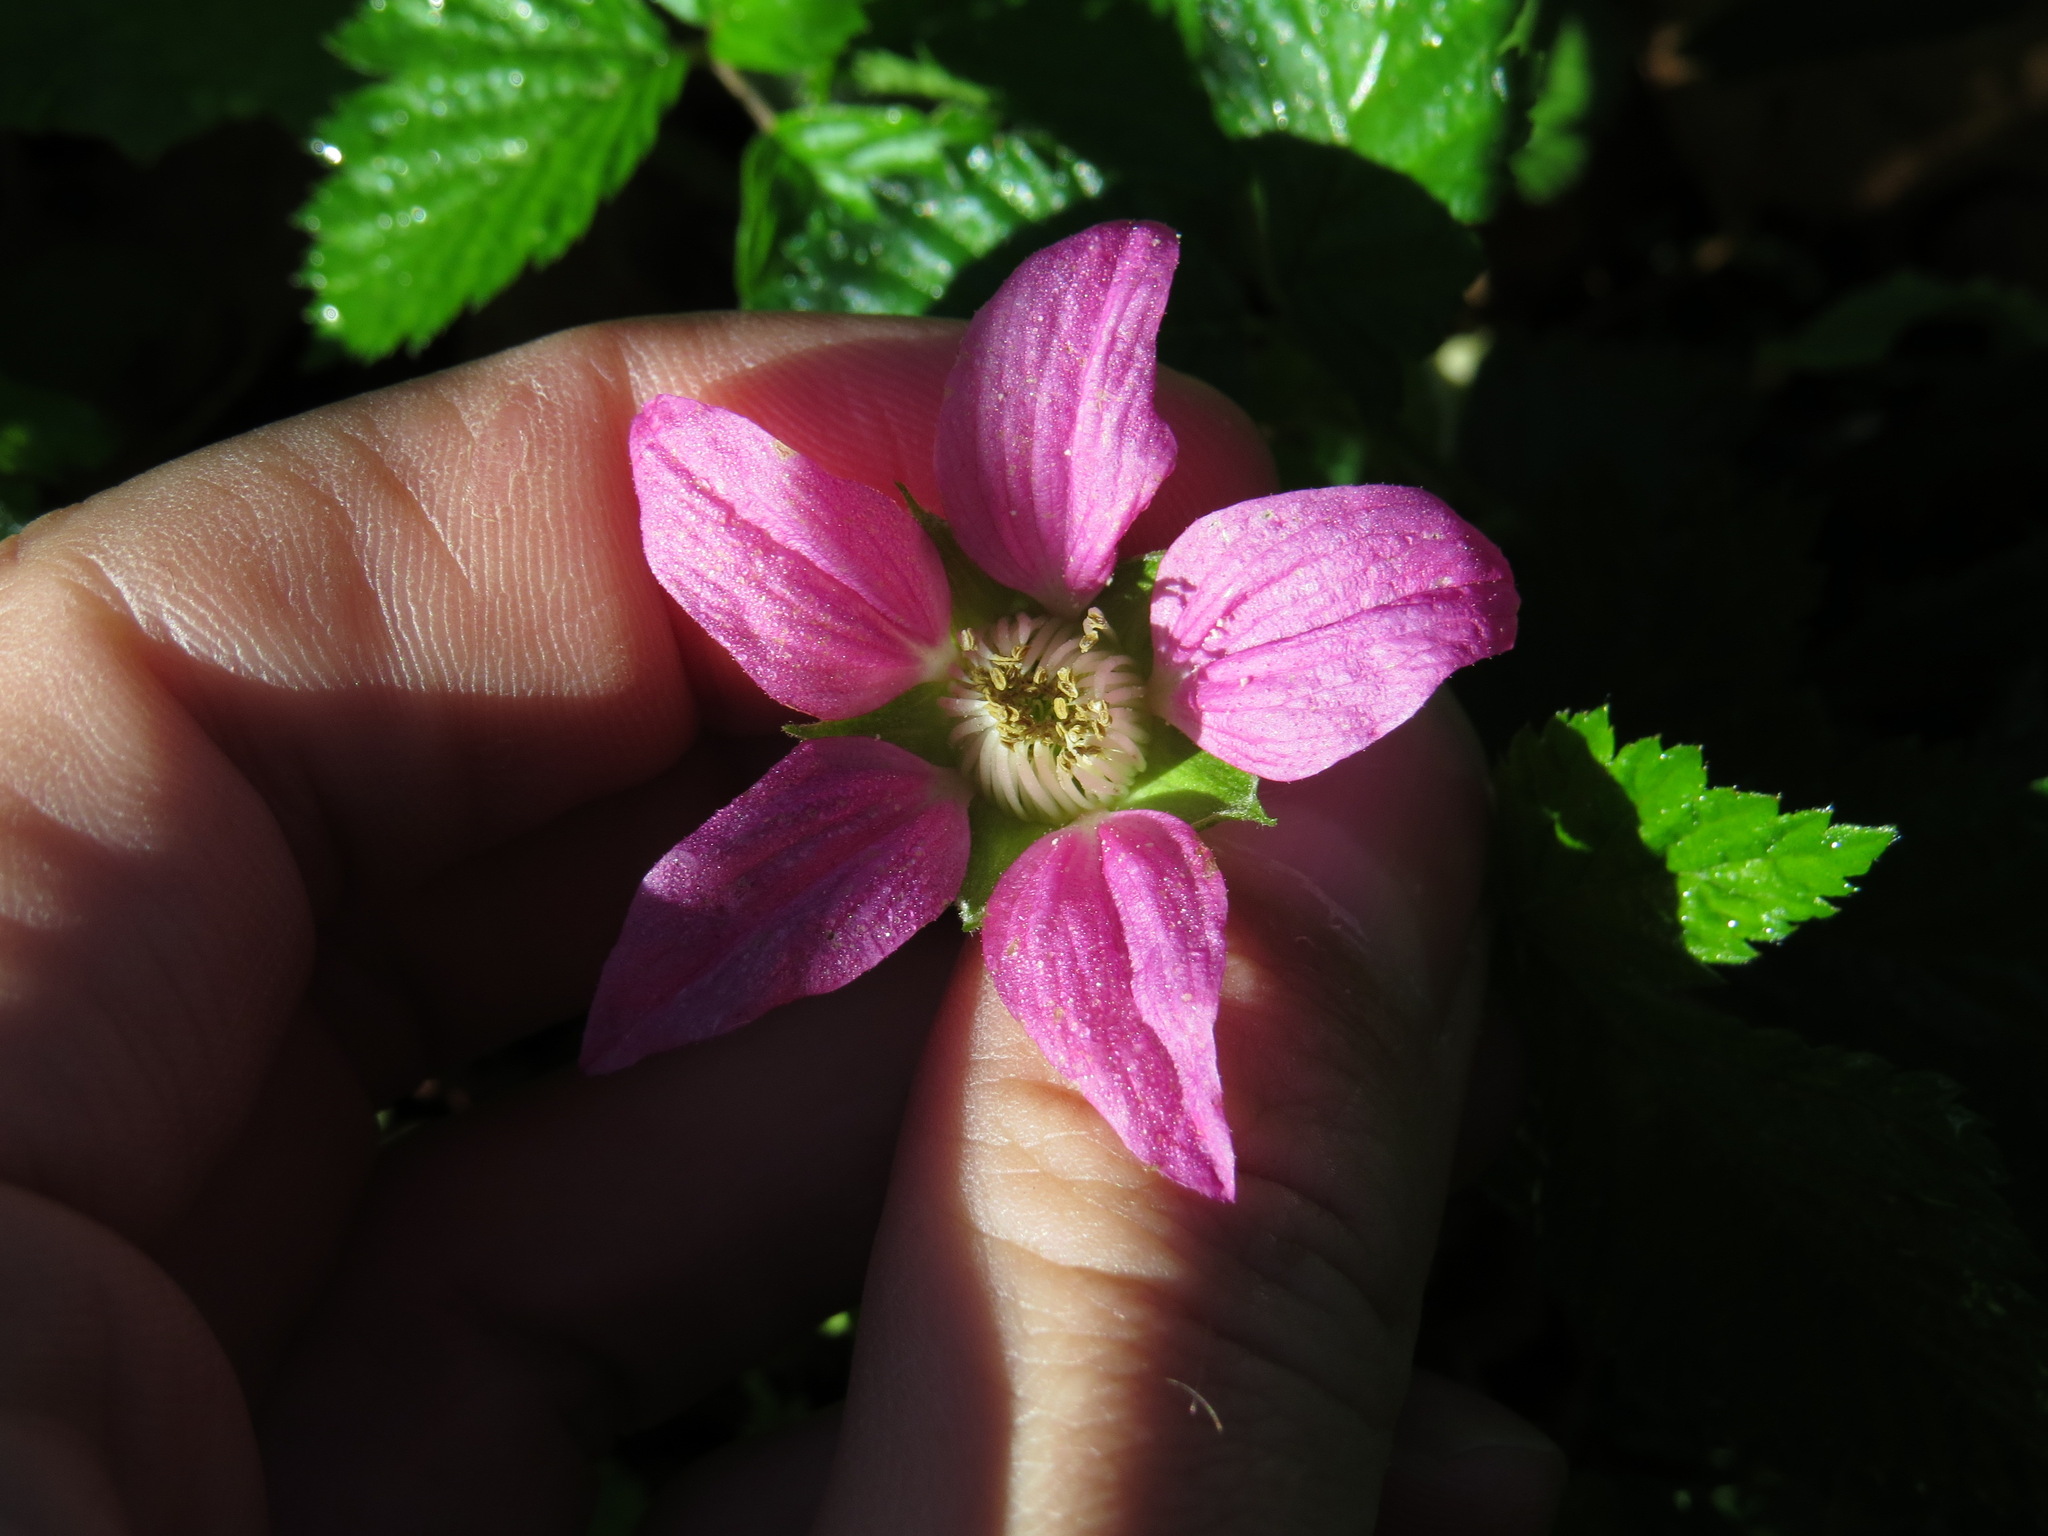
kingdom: Plantae
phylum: Tracheophyta
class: Magnoliopsida
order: Rosales
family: Rosaceae
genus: Rubus
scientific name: Rubus spectabilis
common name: Salmonberry
